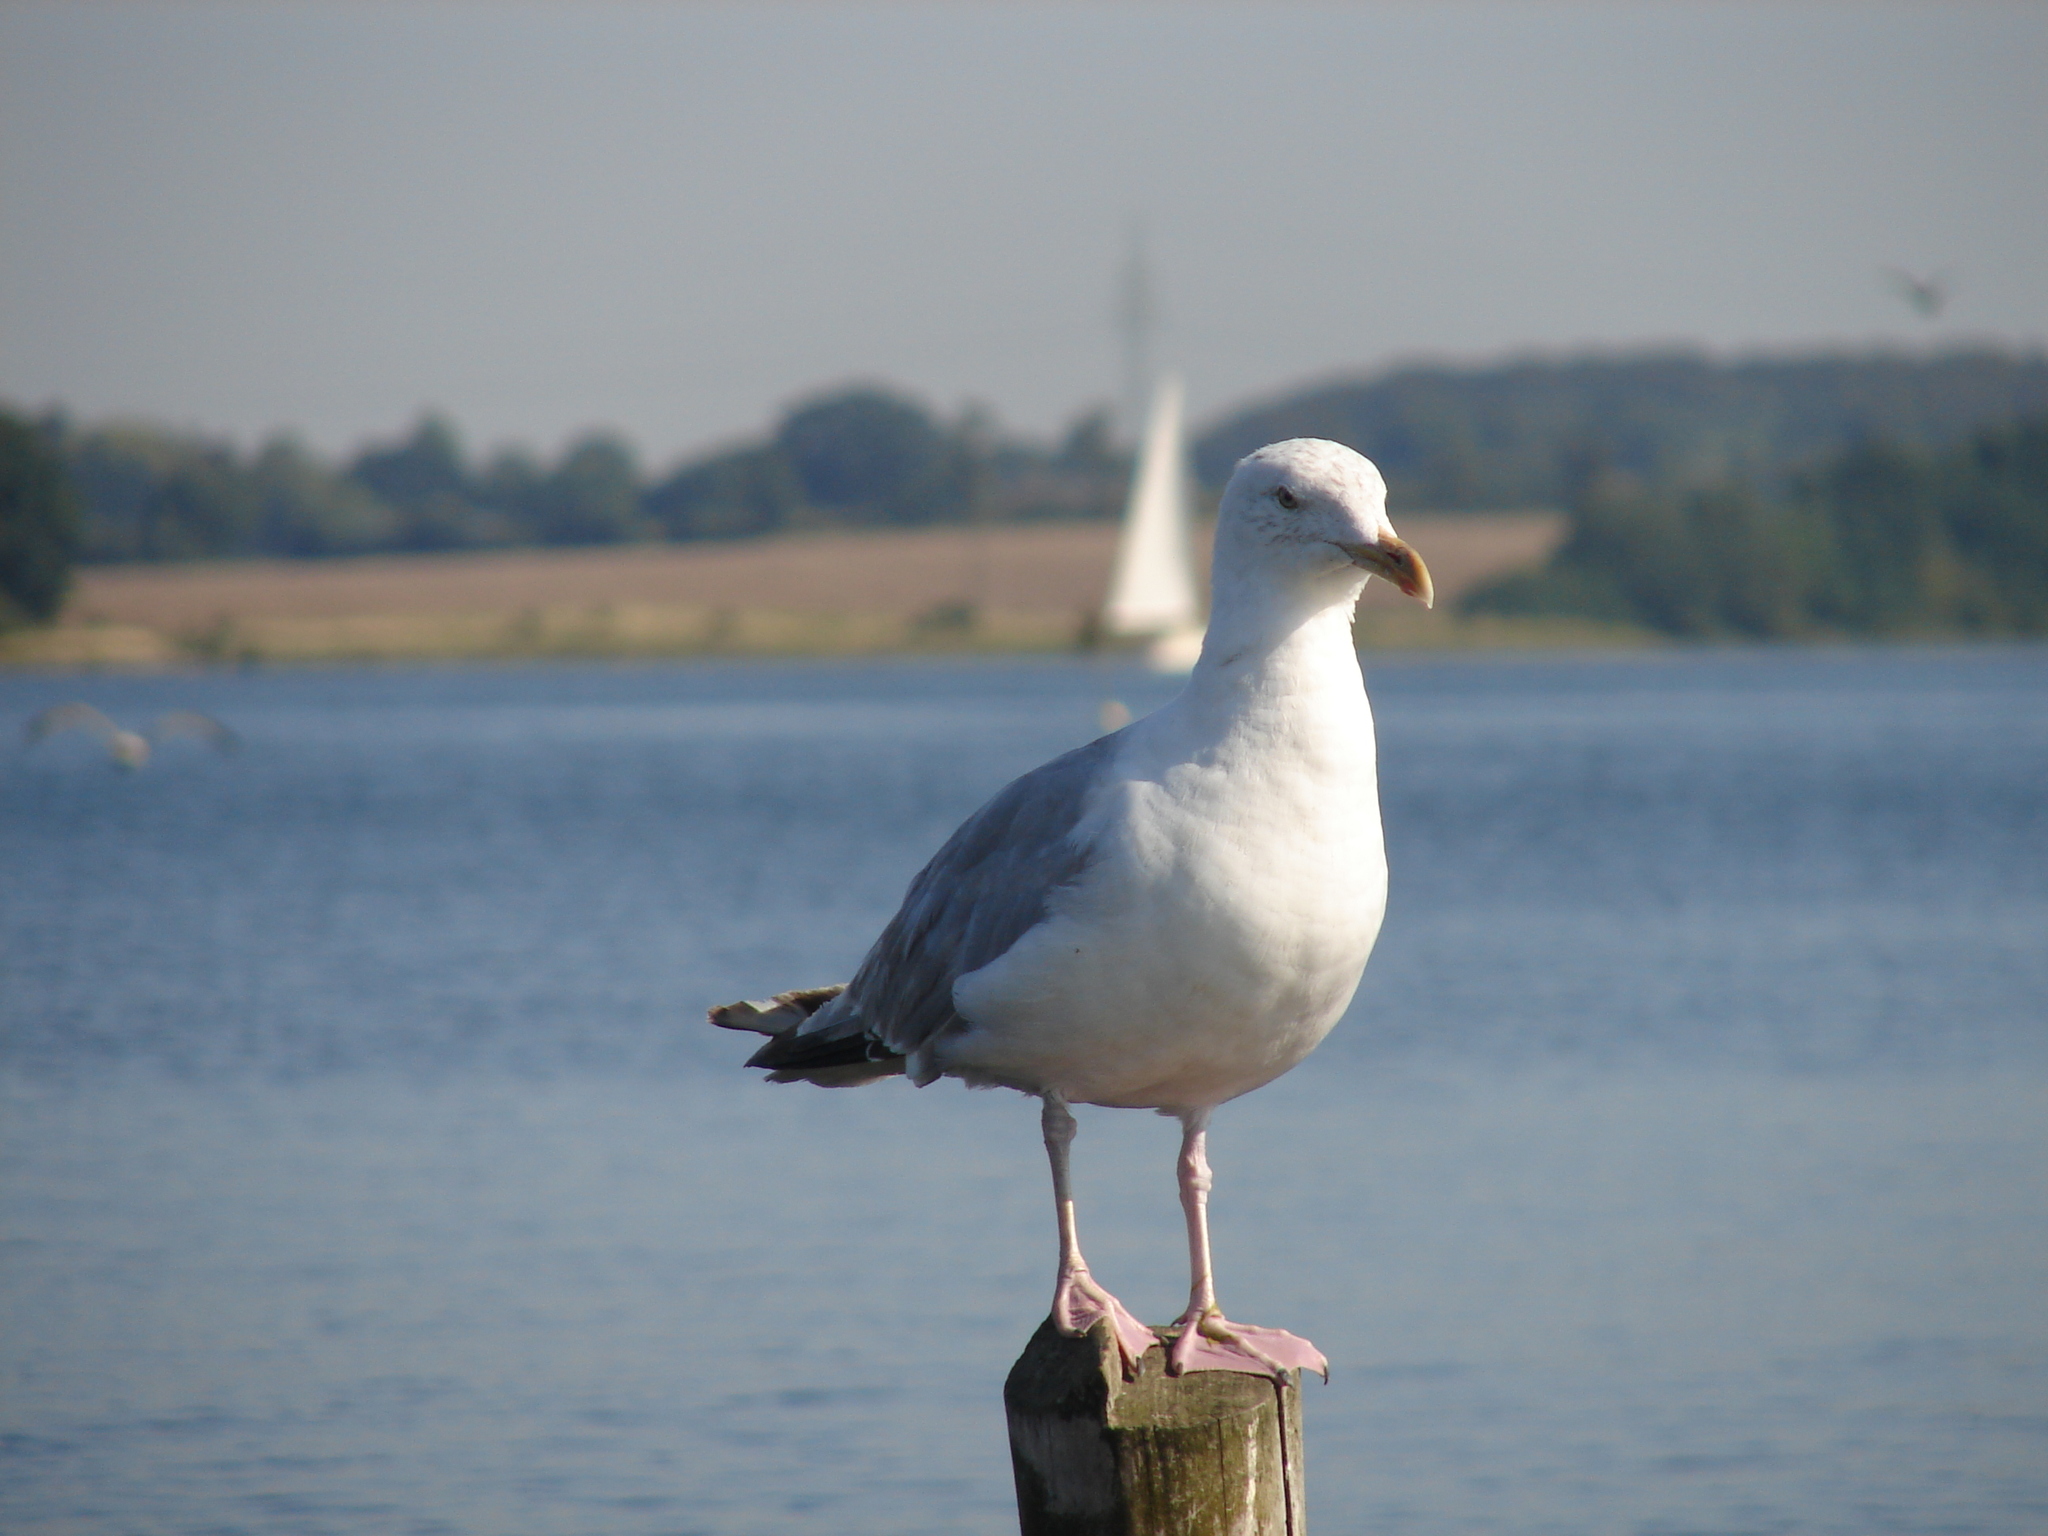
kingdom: Animalia
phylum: Chordata
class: Aves
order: Charadriiformes
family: Laridae
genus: Larus
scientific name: Larus argentatus
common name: Herring gull
